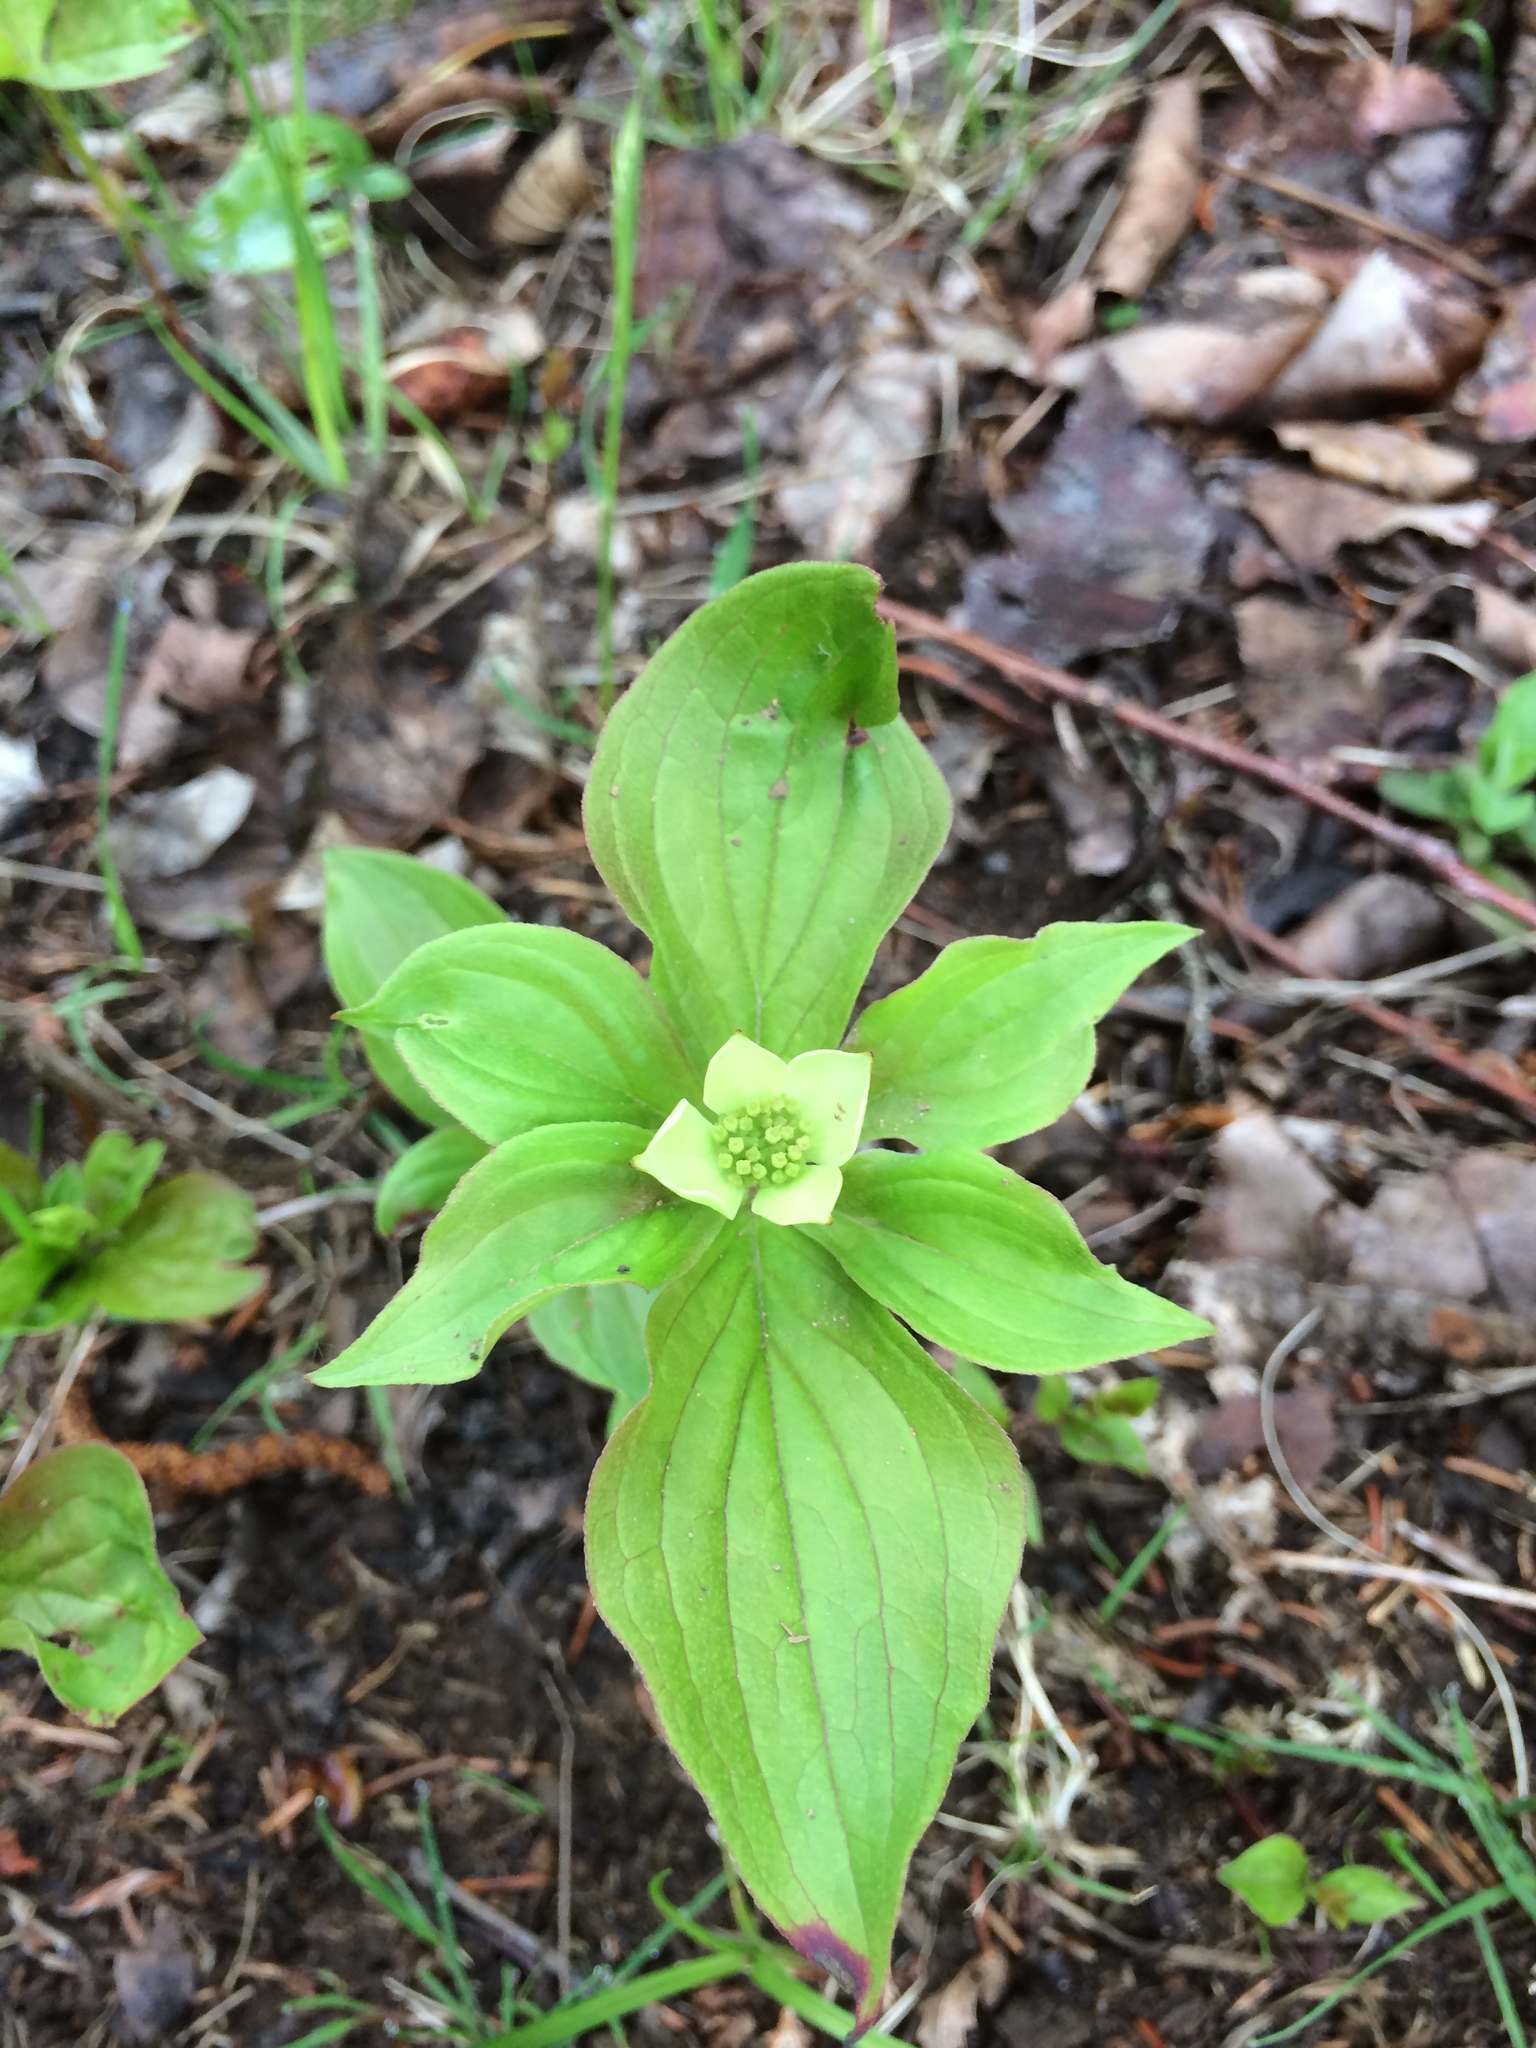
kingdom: Plantae
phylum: Tracheophyta
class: Magnoliopsida
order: Cornales
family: Cornaceae
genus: Cornus
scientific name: Cornus canadensis
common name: Creeping dogwood
